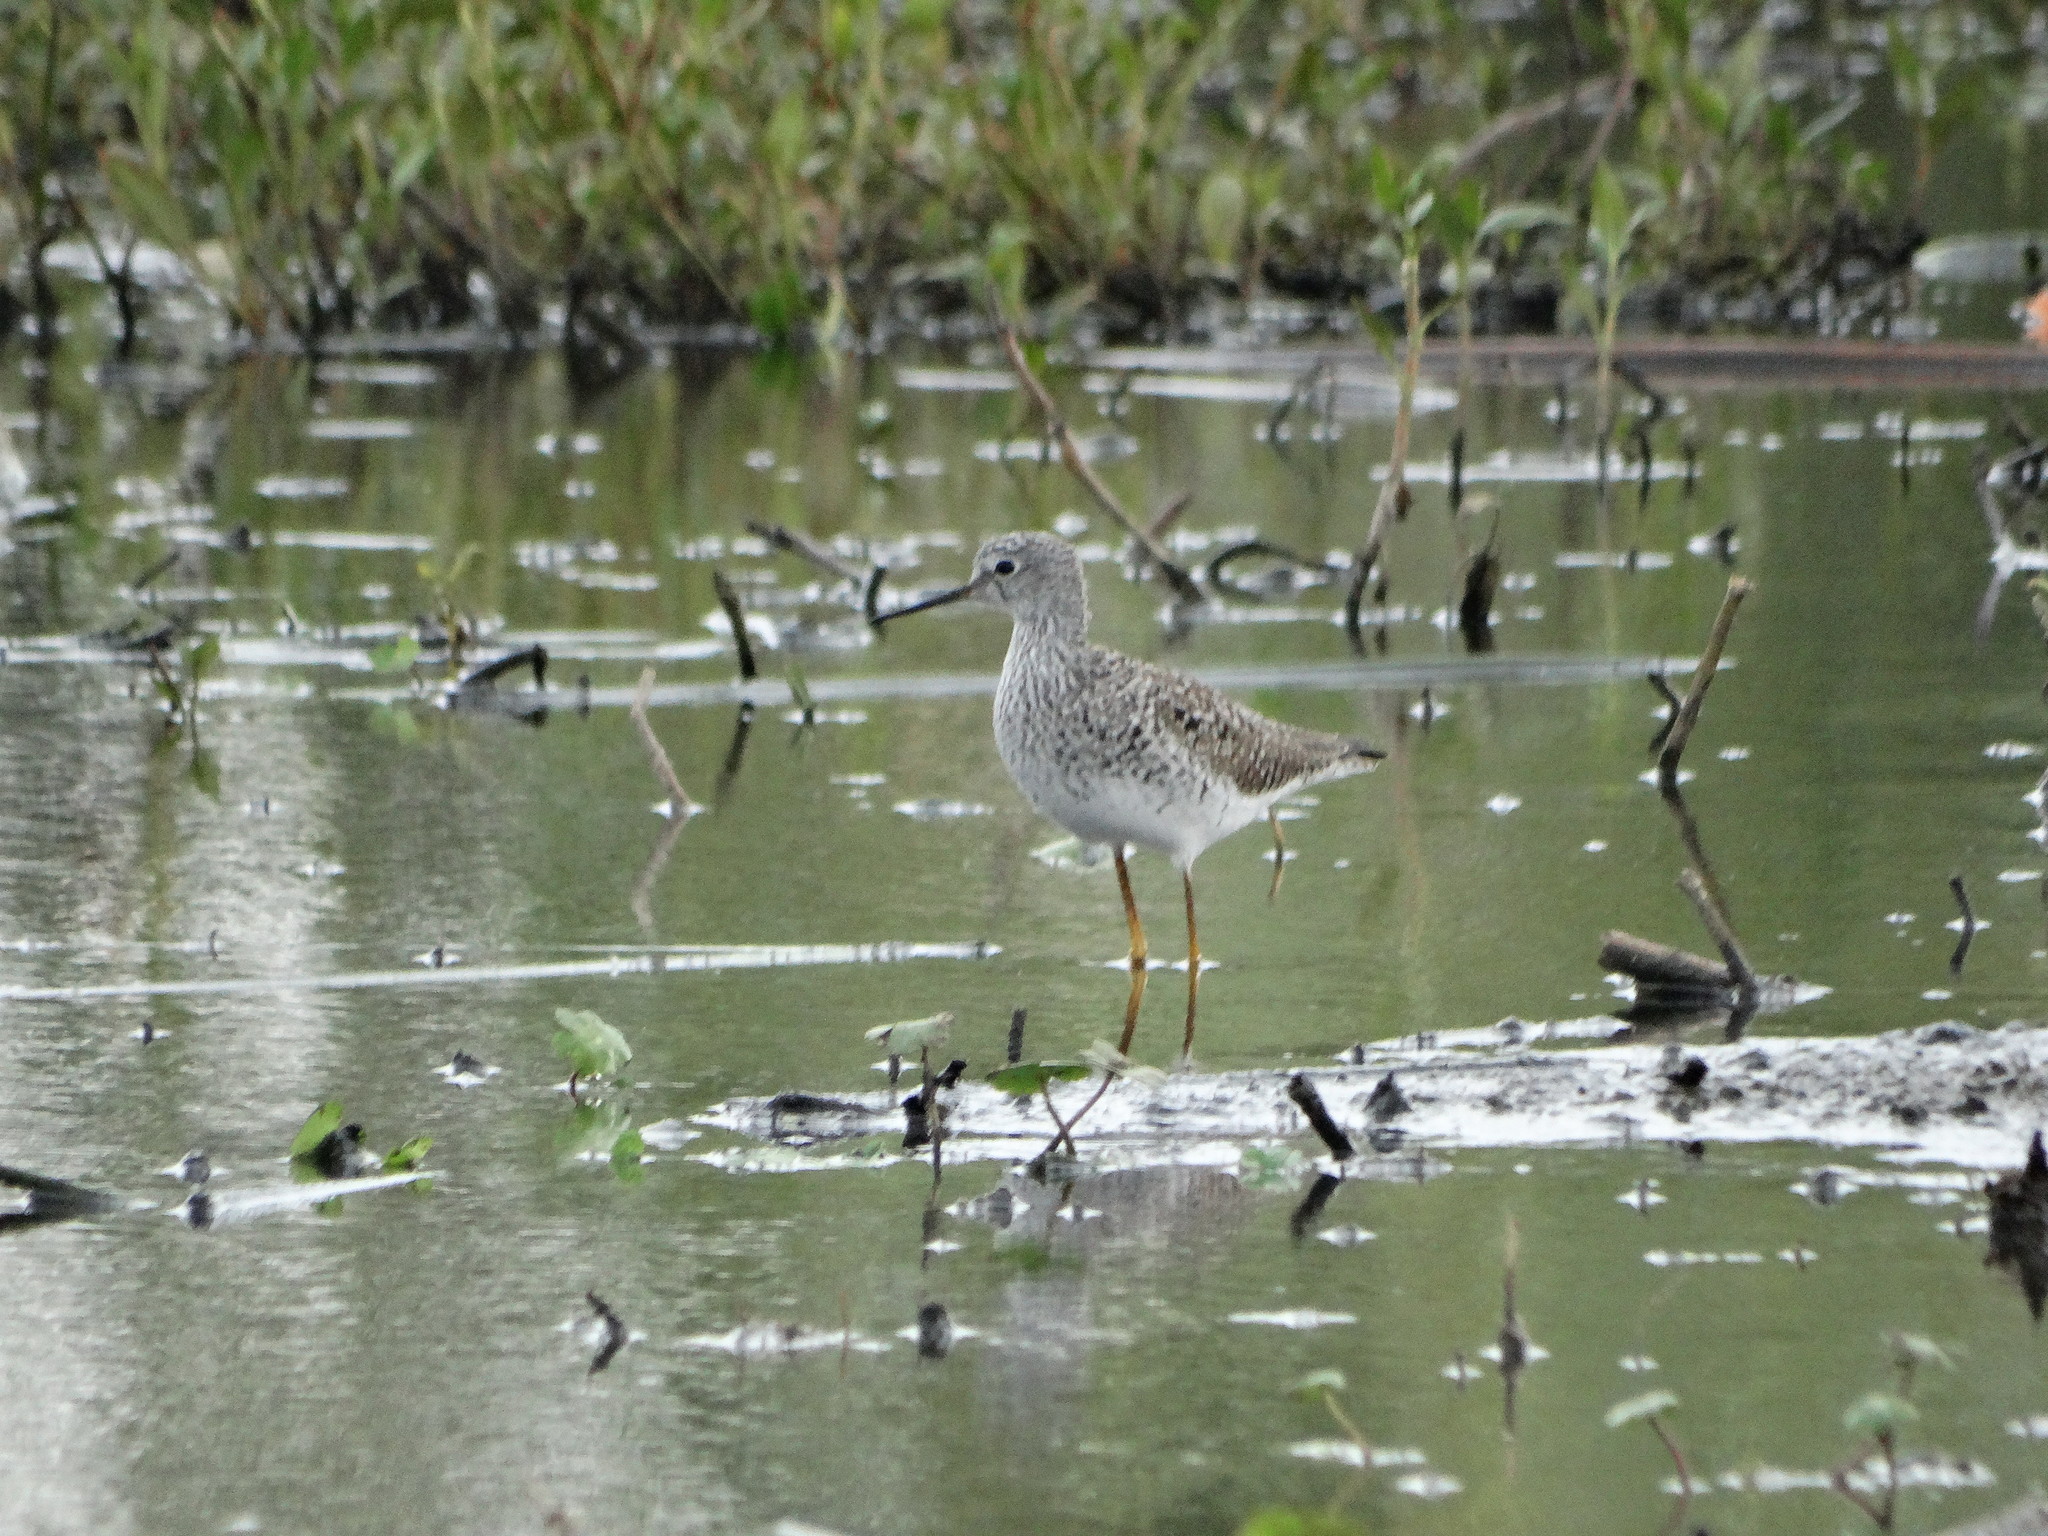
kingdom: Animalia
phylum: Chordata
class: Aves
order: Charadriiformes
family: Scolopacidae
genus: Tringa
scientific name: Tringa flavipes
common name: Lesser yellowlegs
